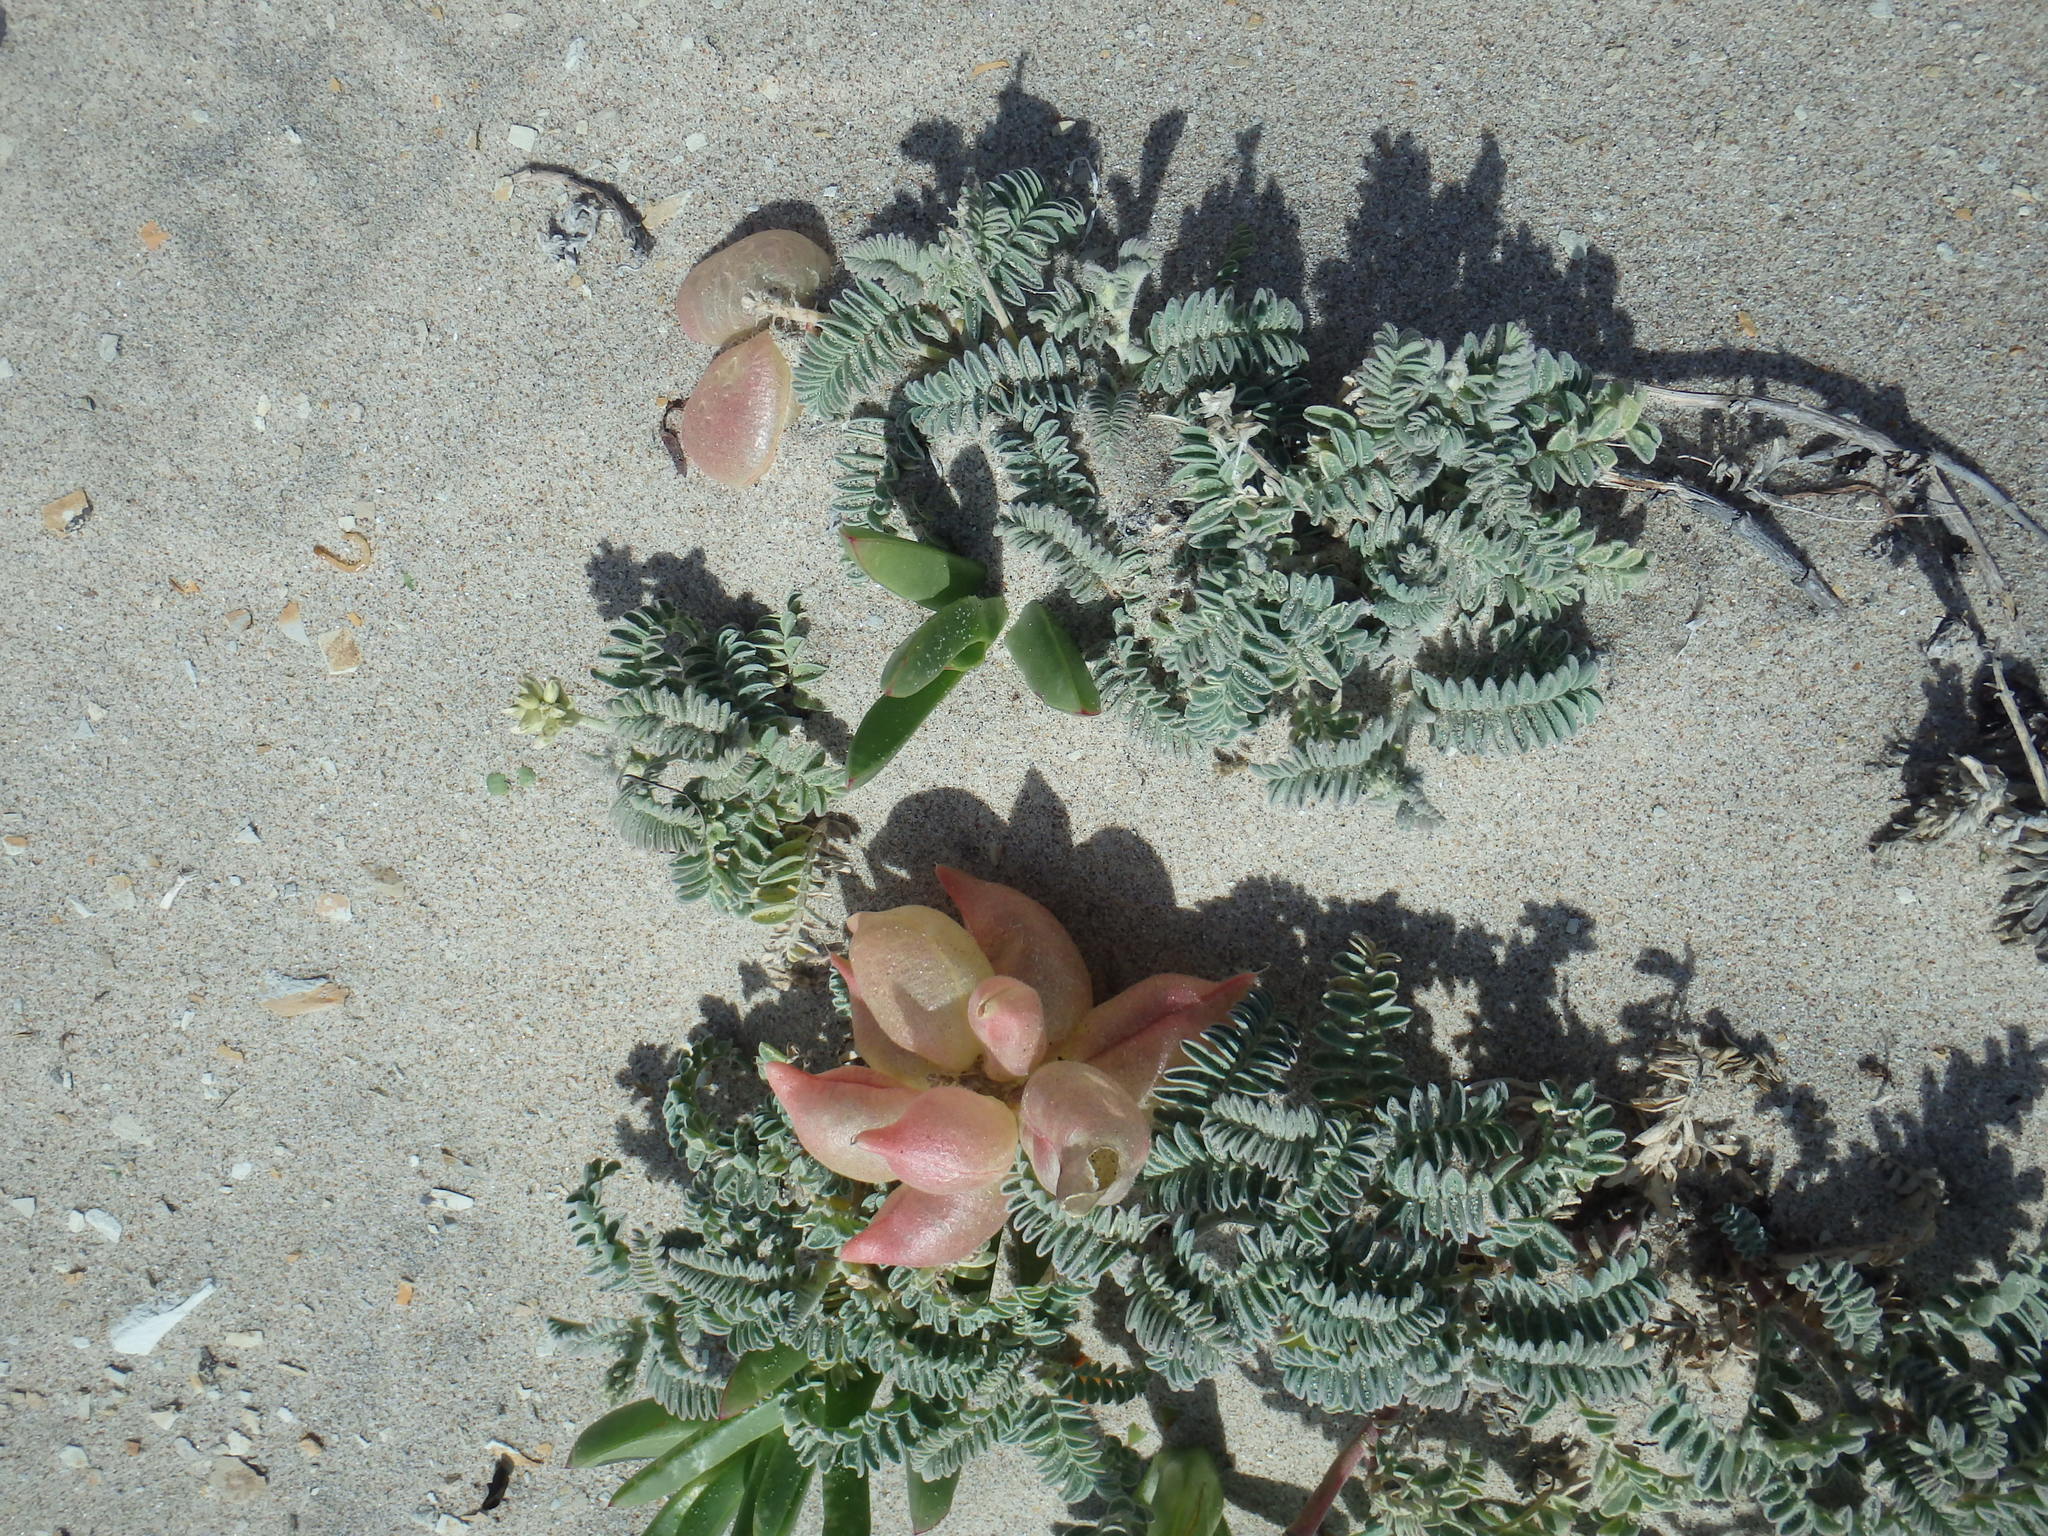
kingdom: Plantae
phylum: Tracheophyta
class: Magnoliopsida
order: Fabales
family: Fabaceae
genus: Astragalus
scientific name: Astragalus nuttallii
